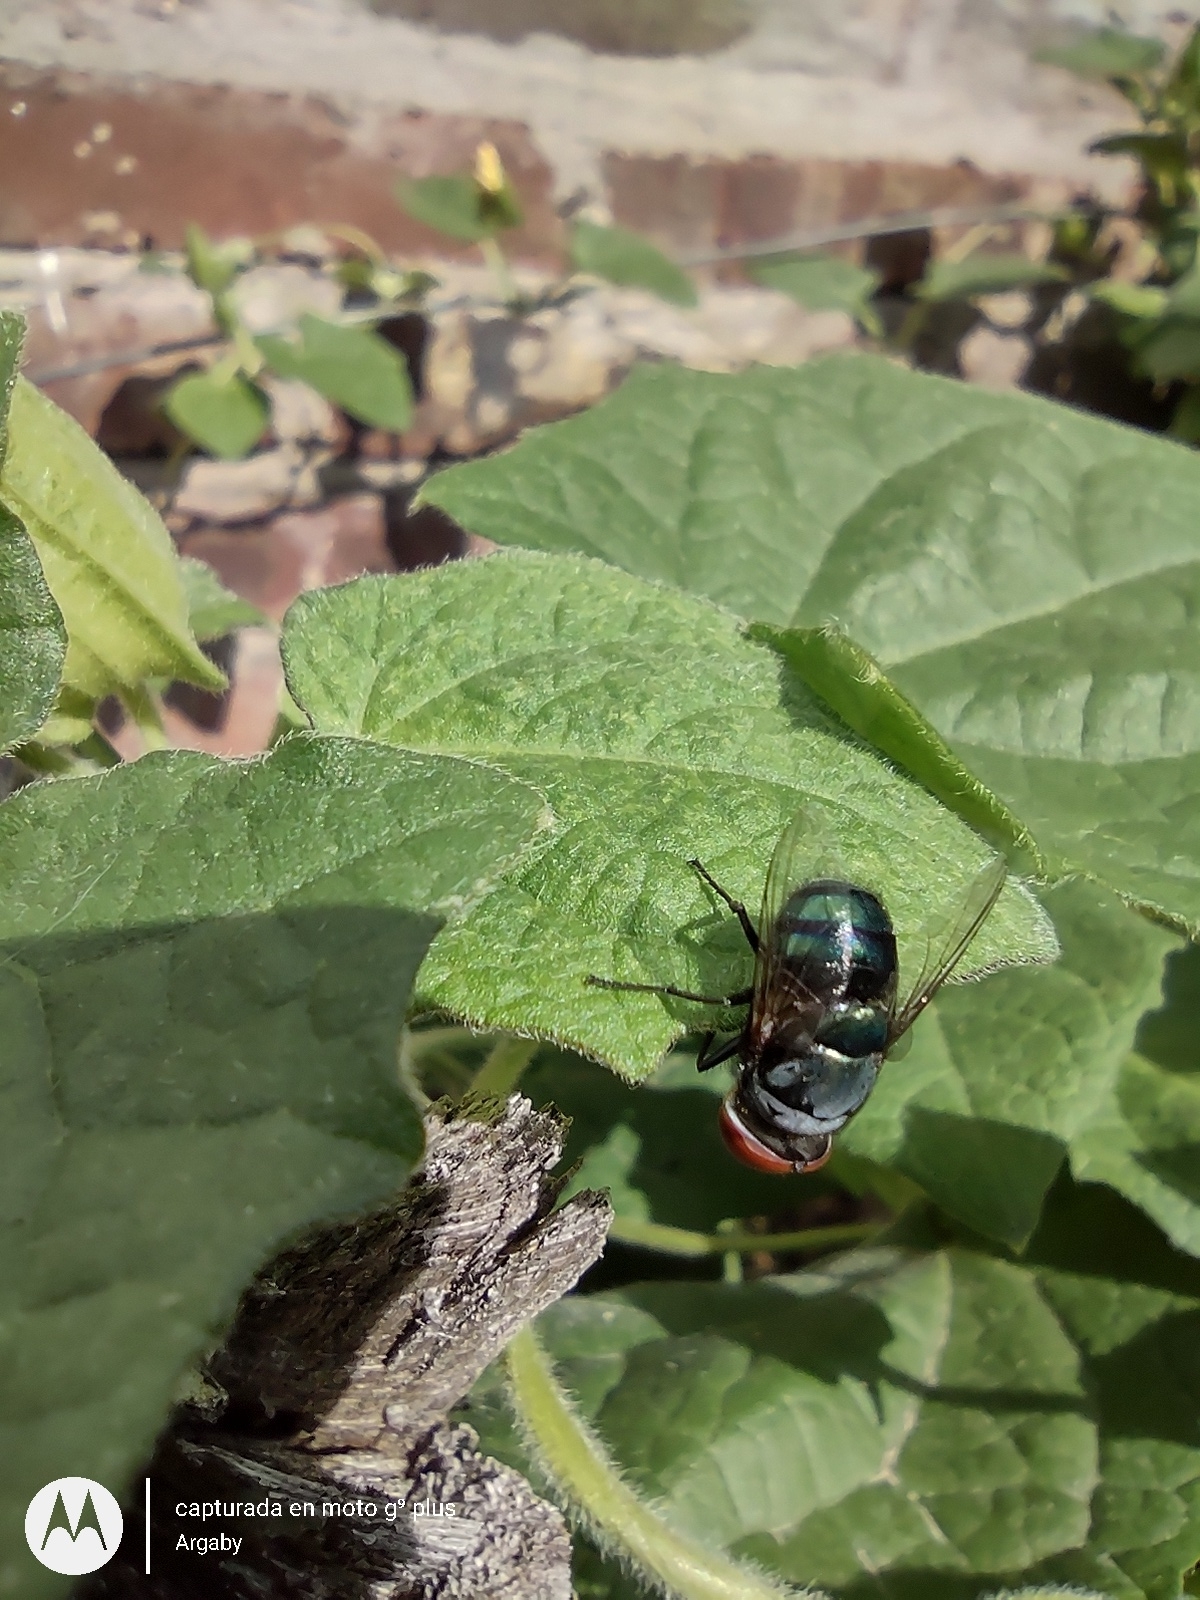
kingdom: Animalia
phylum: Arthropoda
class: Insecta
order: Diptera
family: Calliphoridae
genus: Chrysomya
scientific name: Chrysomya megacephala
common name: Blow fly
